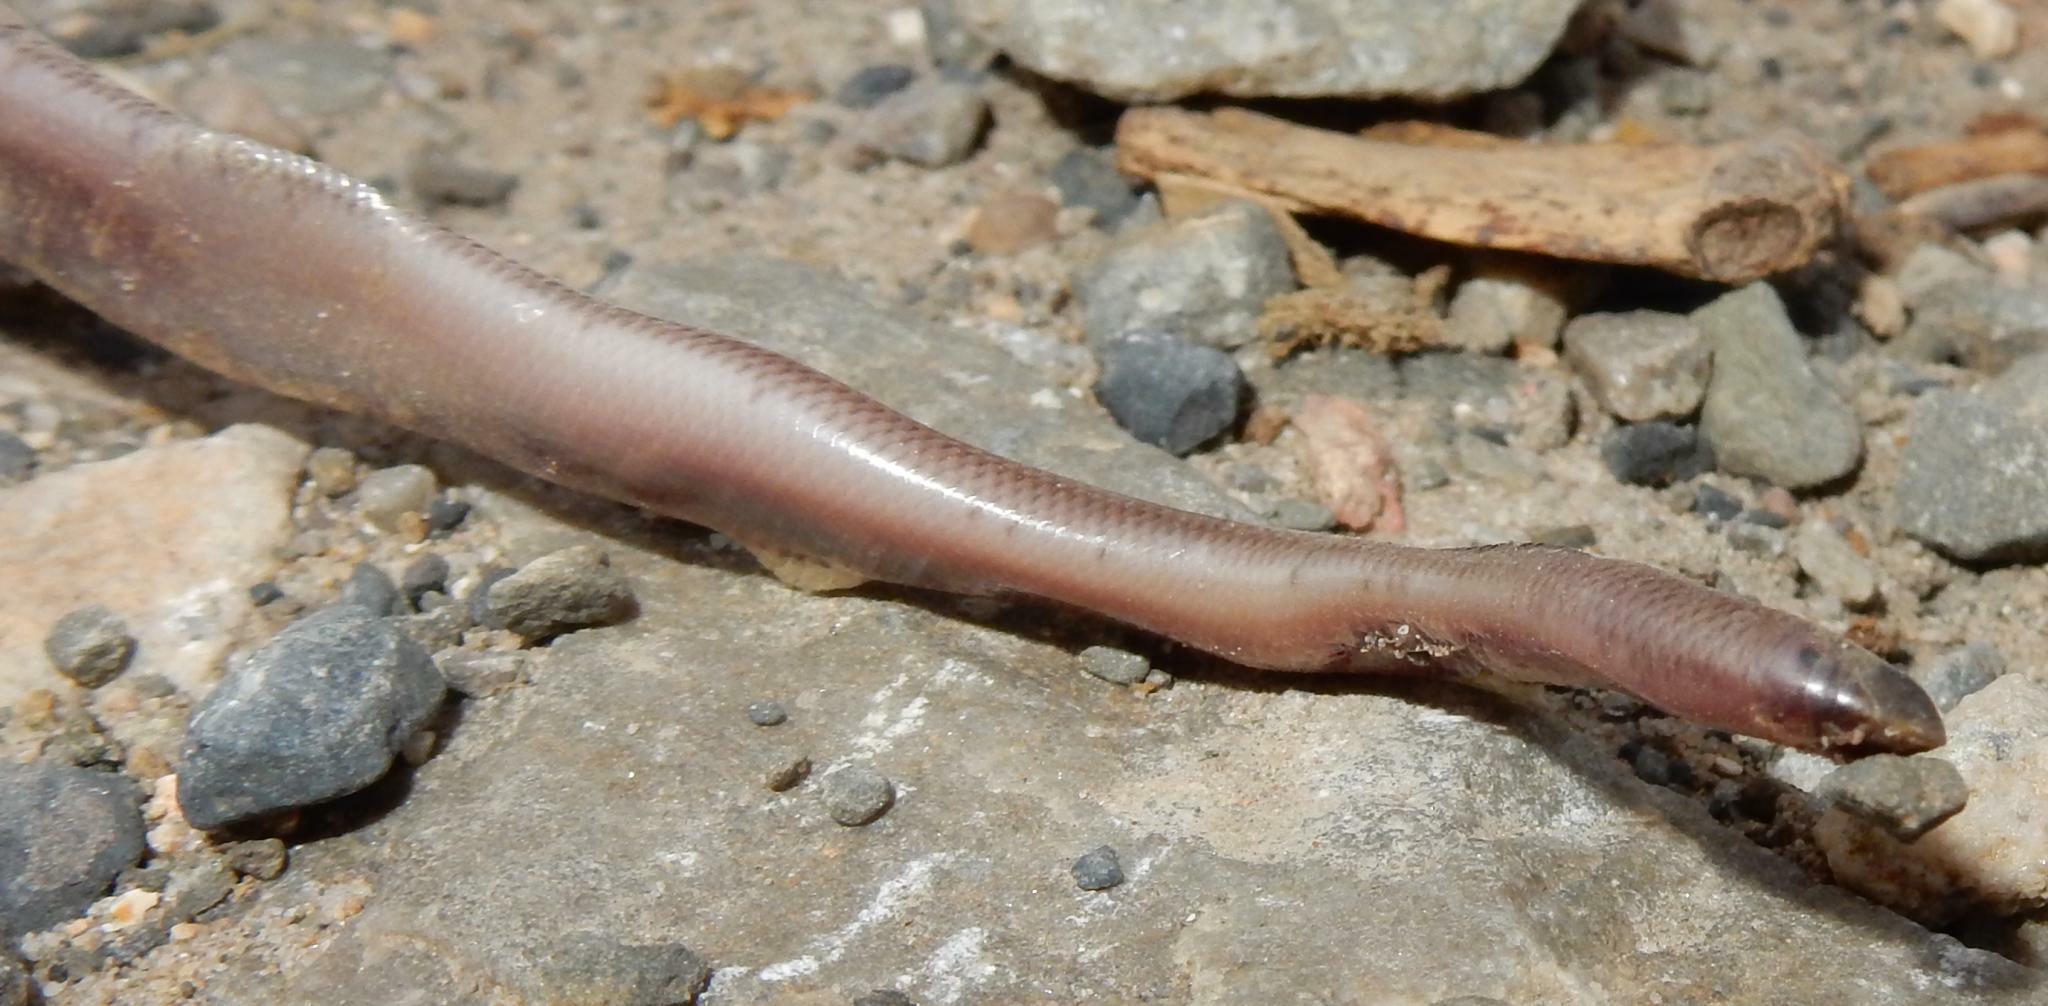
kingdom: Animalia
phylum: Chordata
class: Squamata
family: Typhlopidae
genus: Rhinotyphlops
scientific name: Rhinotyphlops lalandei
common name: Delalande's beaked blind snake
